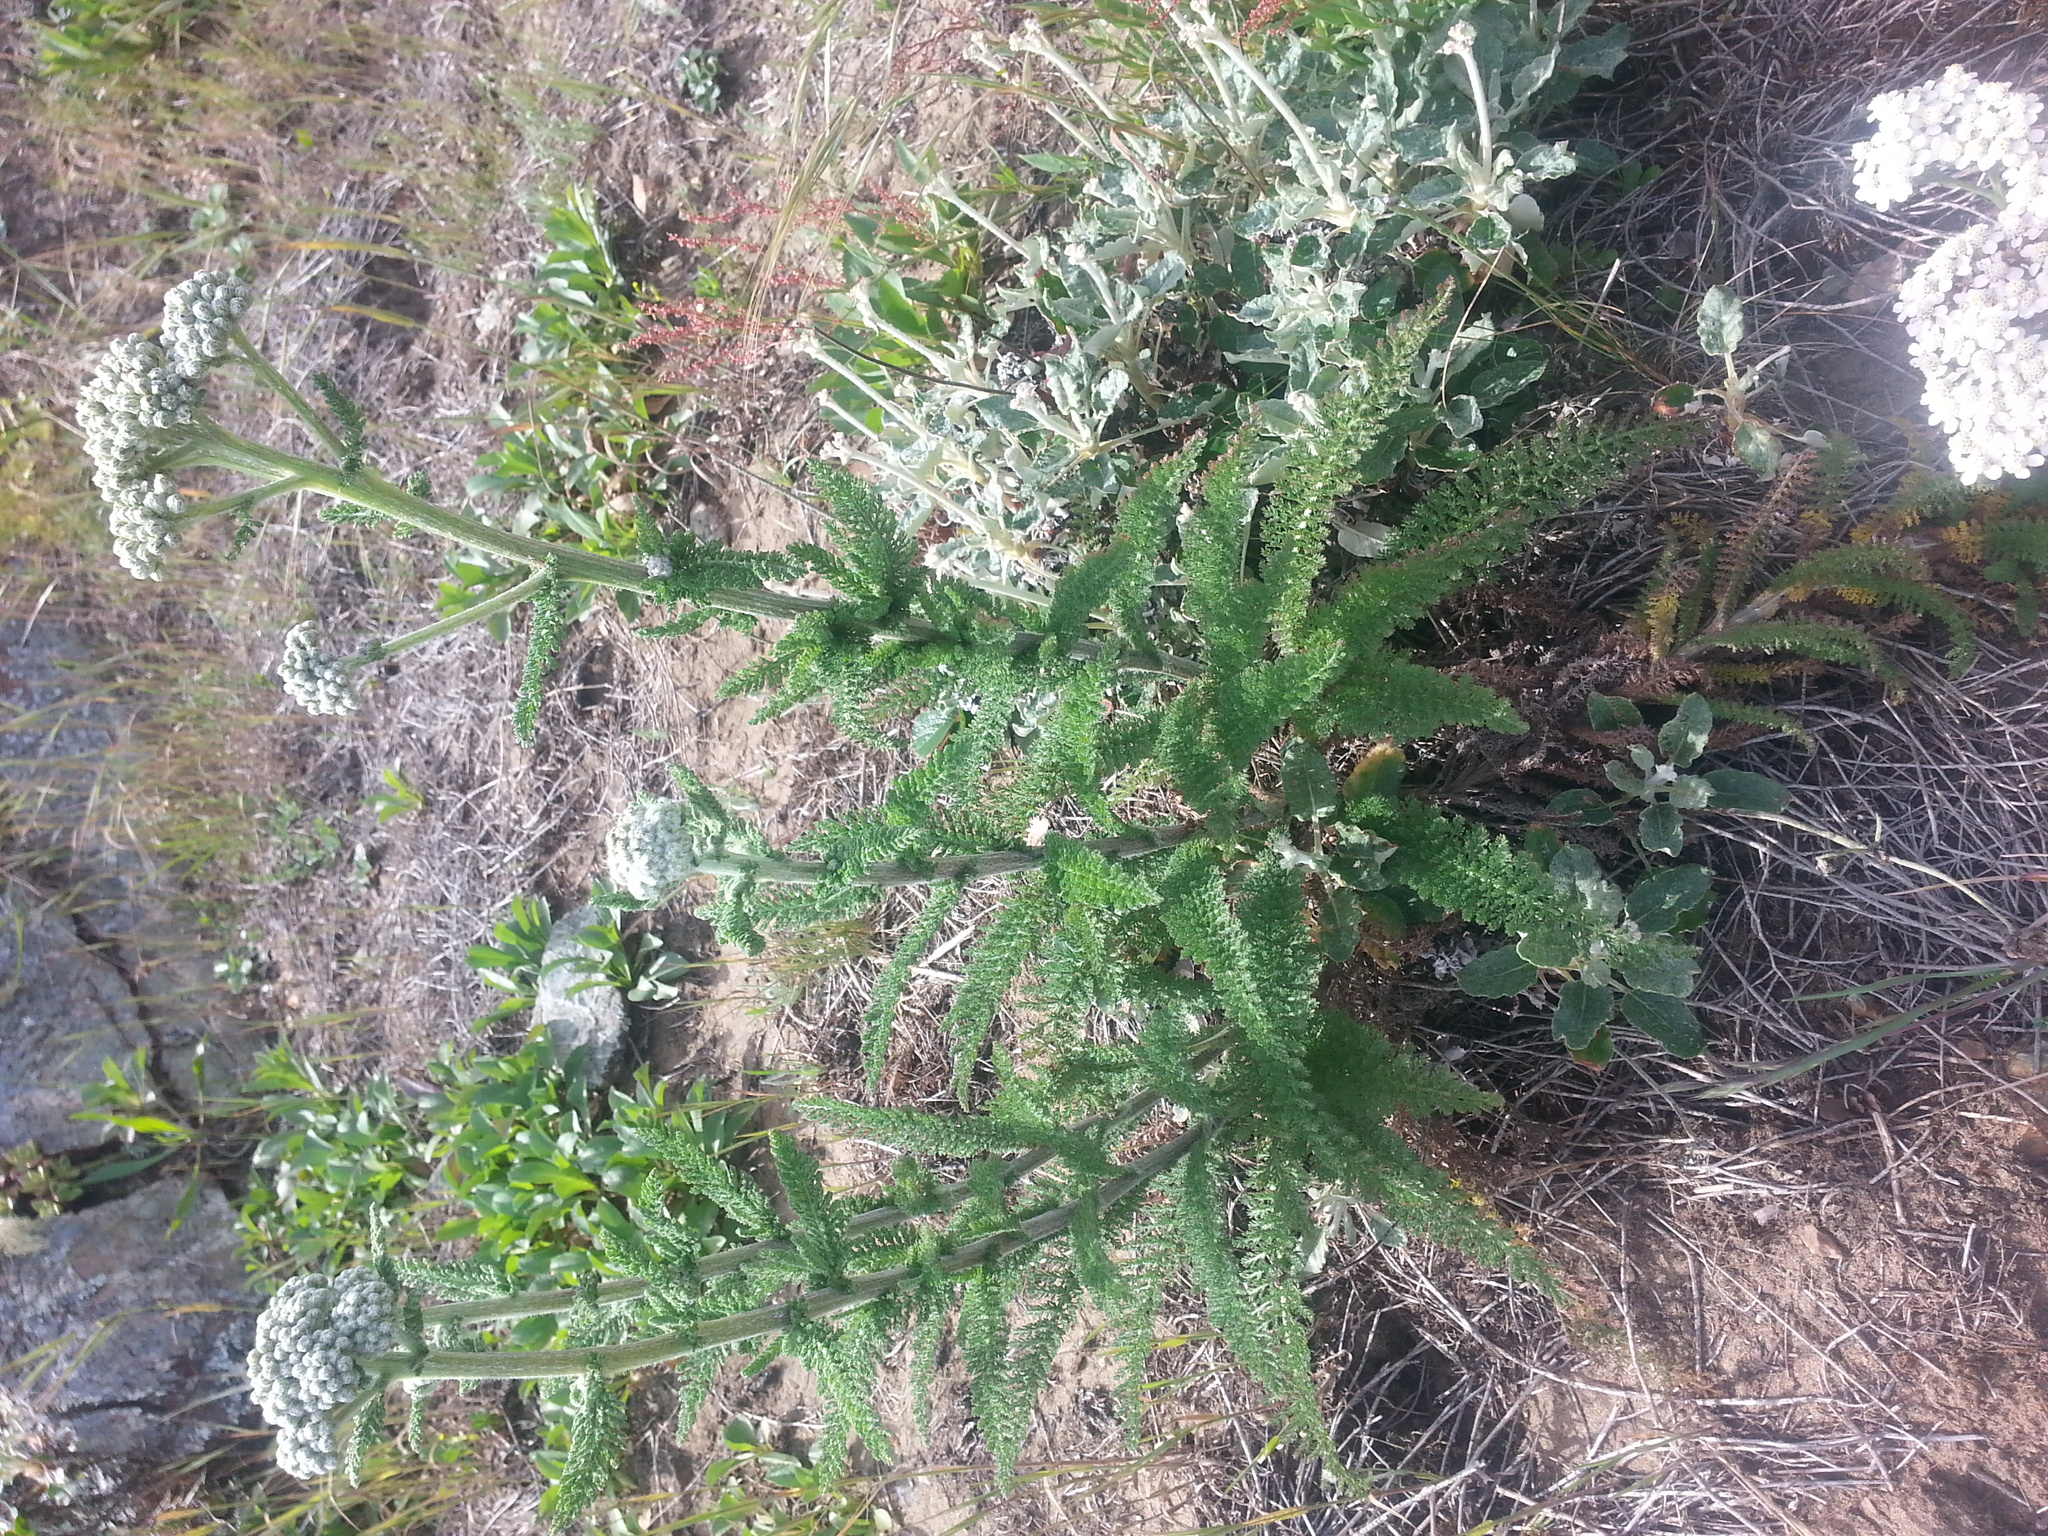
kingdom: Plantae
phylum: Tracheophyta
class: Magnoliopsida
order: Asterales
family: Asteraceae
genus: Achillea
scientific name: Achillea millefolium
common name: Yarrow
